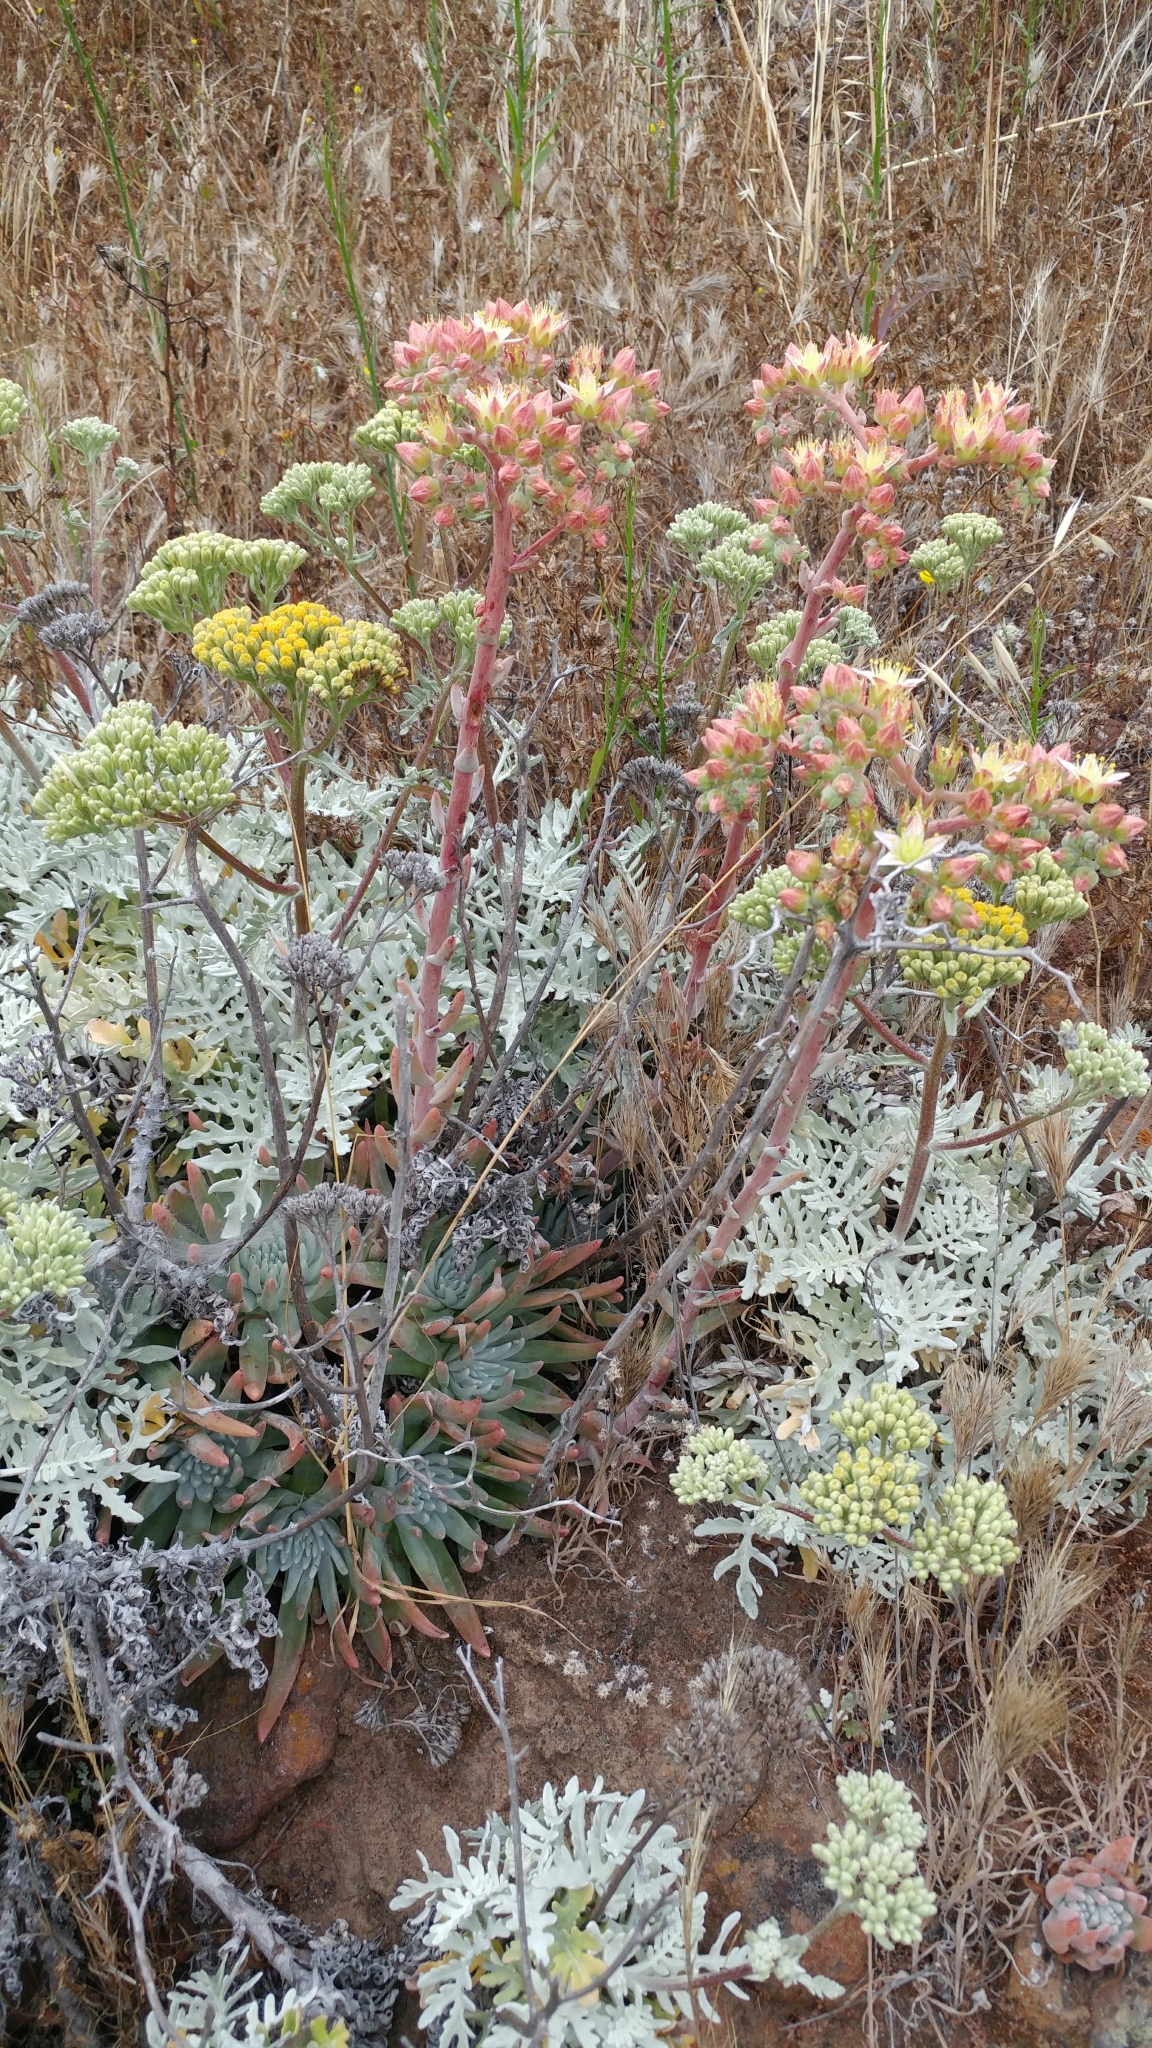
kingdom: Plantae
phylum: Tracheophyta
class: Magnoliopsida
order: Saxifragales
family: Crassulaceae
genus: Dudleya
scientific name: Dudleya virens
